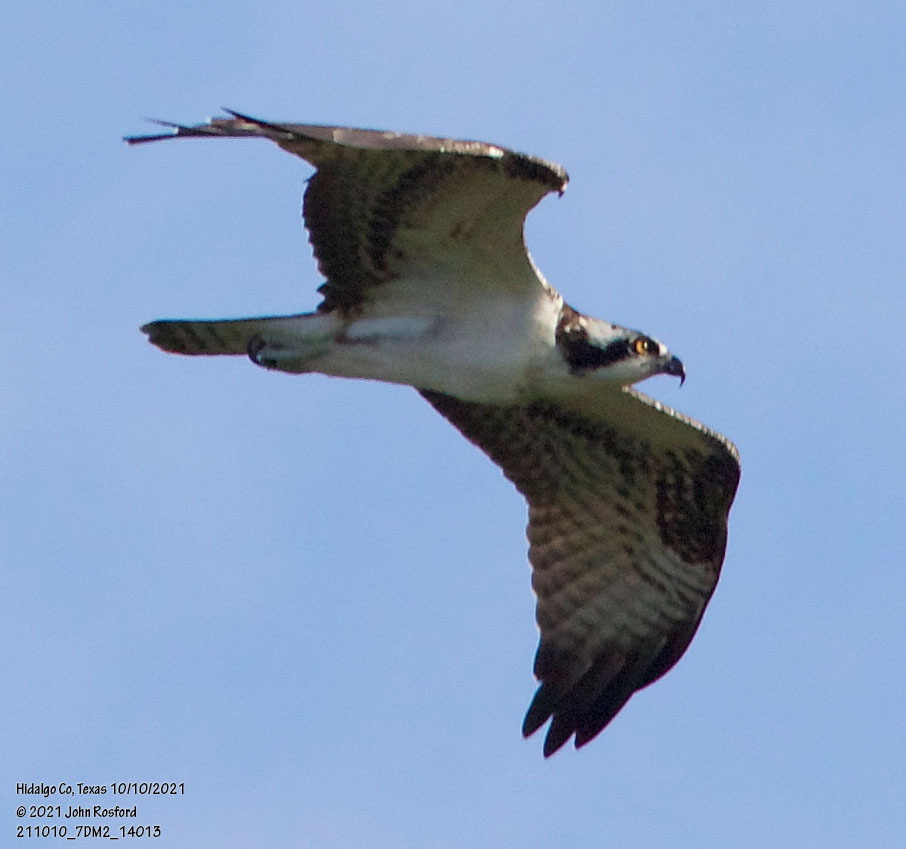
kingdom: Animalia
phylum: Chordata
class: Aves
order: Accipitriformes
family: Pandionidae
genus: Pandion
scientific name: Pandion haliaetus
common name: Osprey
